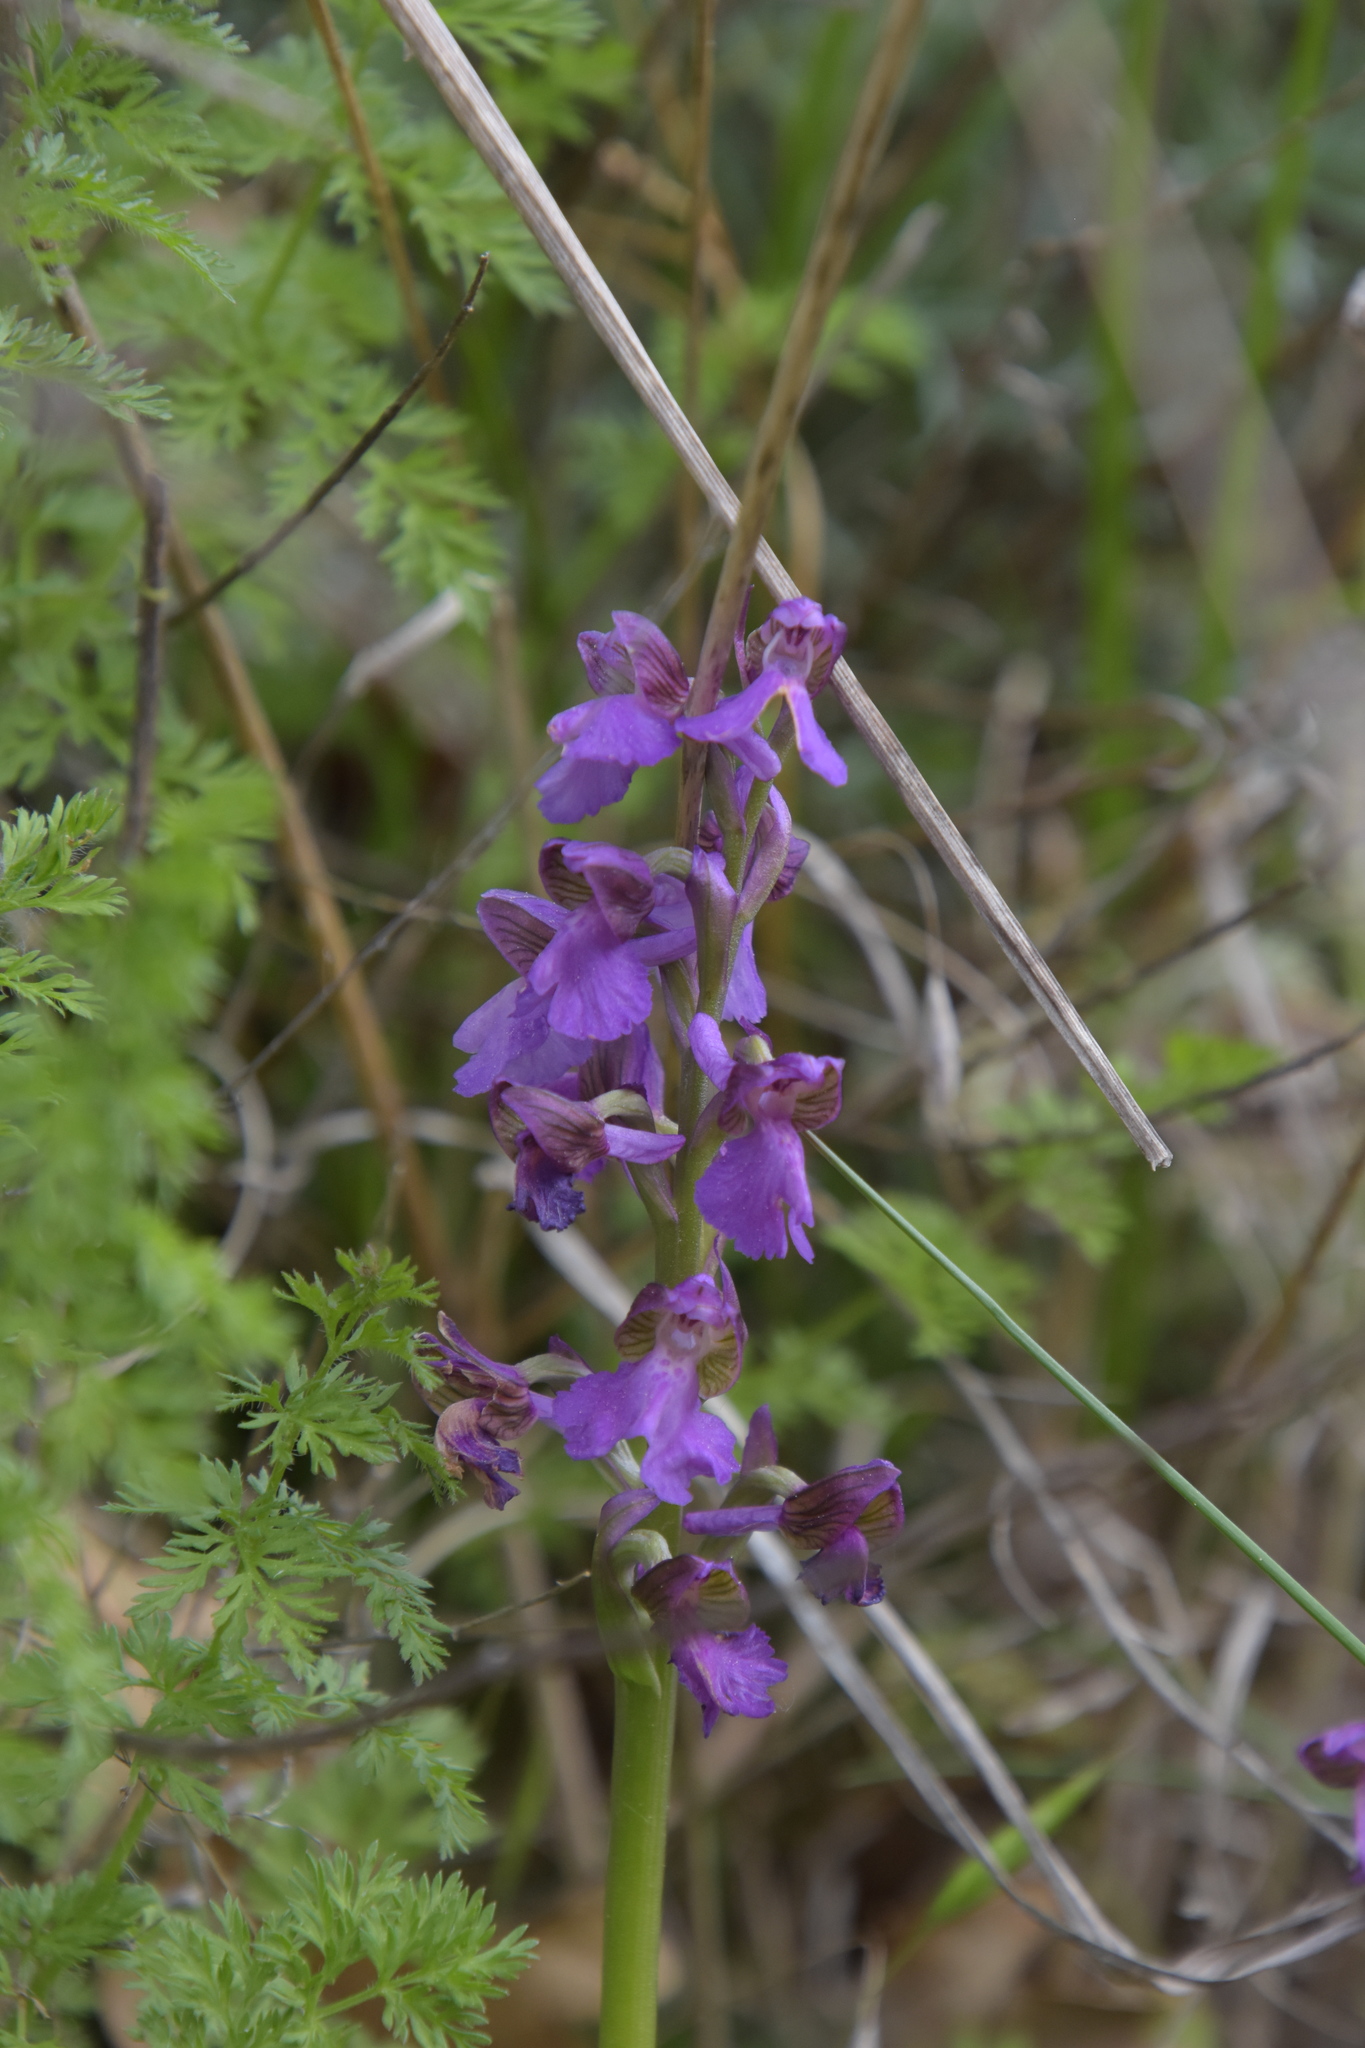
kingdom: Plantae
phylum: Tracheophyta
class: Liliopsida
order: Asparagales
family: Orchidaceae
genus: Anacamptis
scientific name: Anacamptis morio
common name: Green-winged orchid
